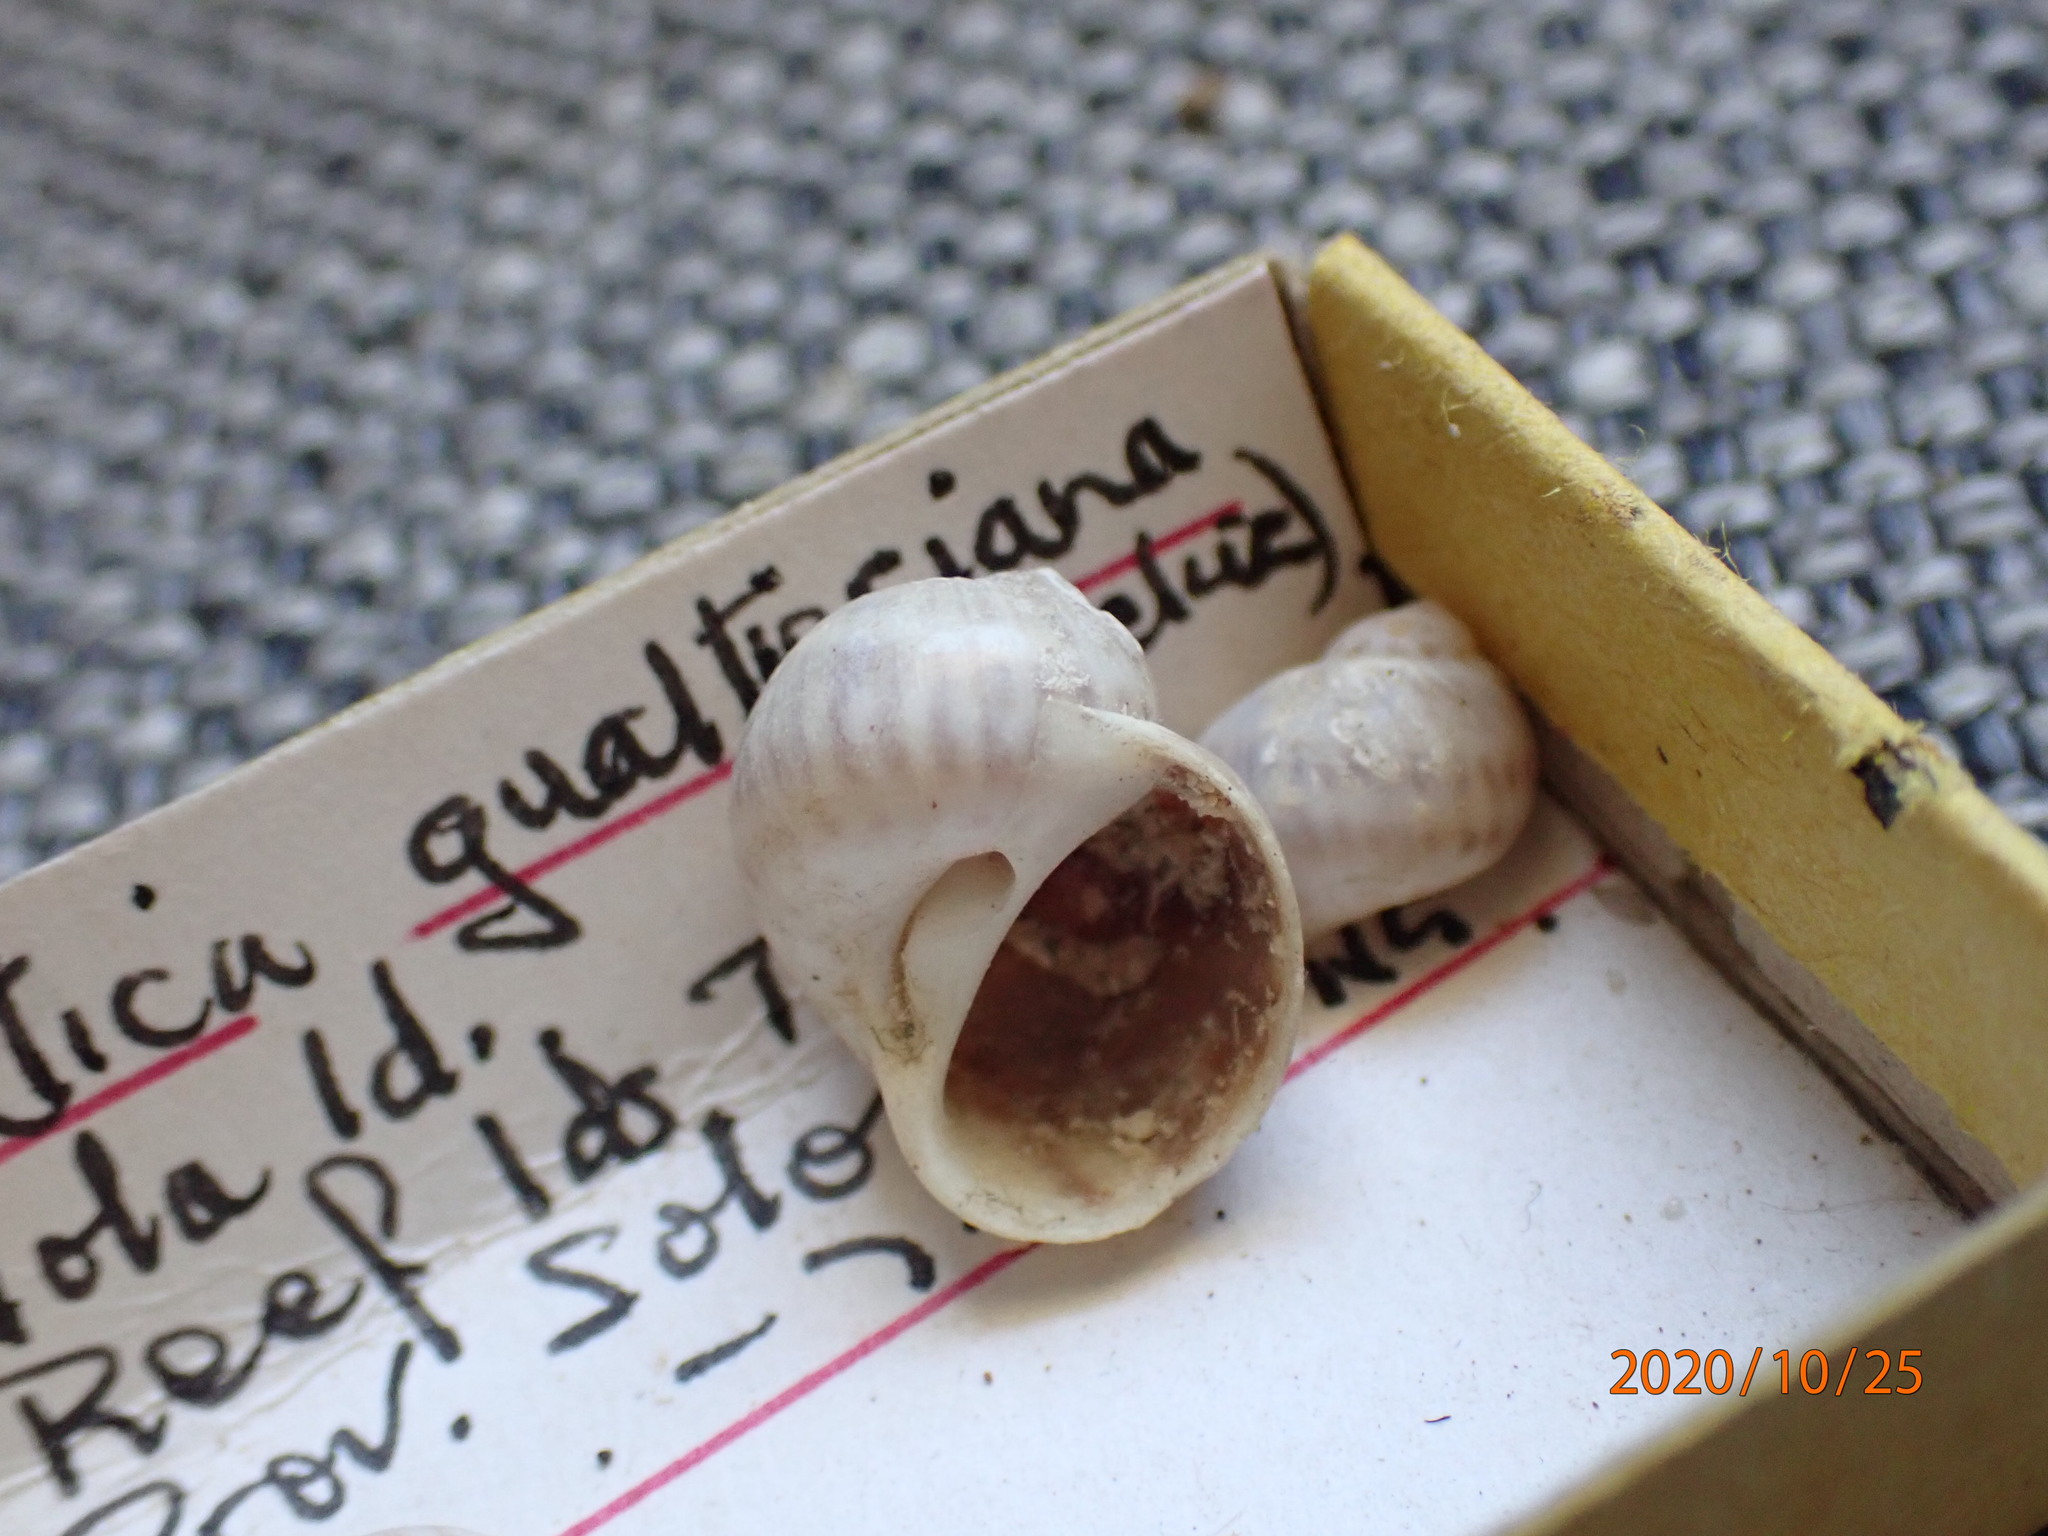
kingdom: Animalia
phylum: Mollusca
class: Gastropoda
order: Littorinimorpha
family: Naticidae
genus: Notocochlis
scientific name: Notocochlis gualteriana
